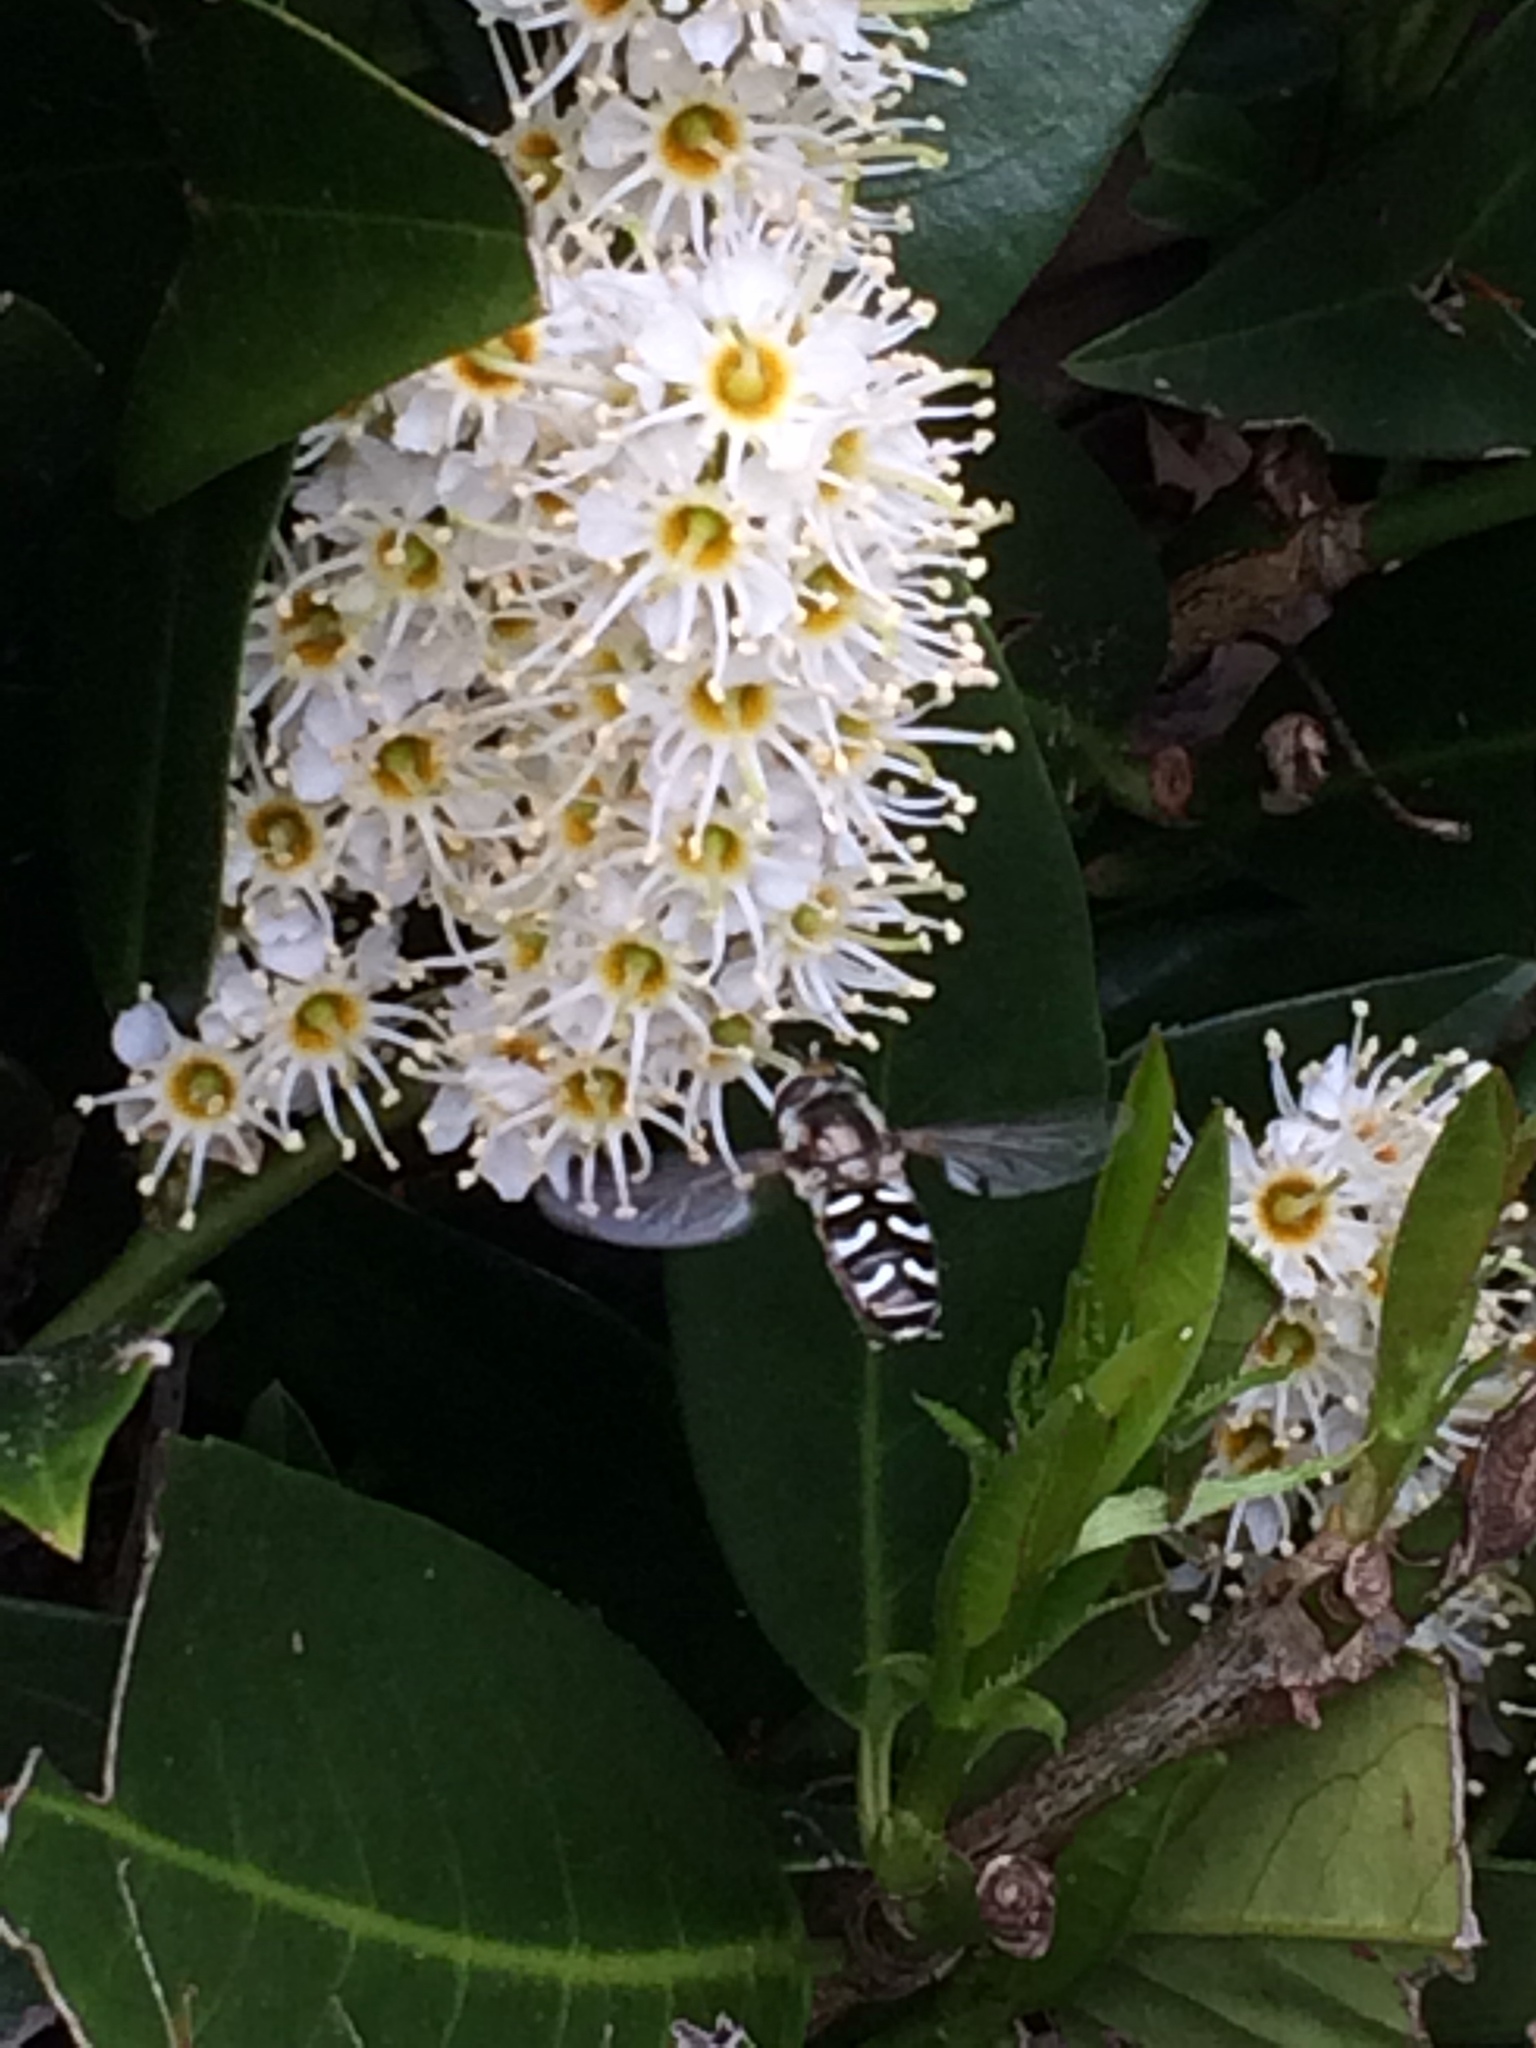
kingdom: Animalia
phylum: Arthropoda
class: Insecta
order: Diptera
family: Syrphidae
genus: Scaeva
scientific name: Scaeva affinis
